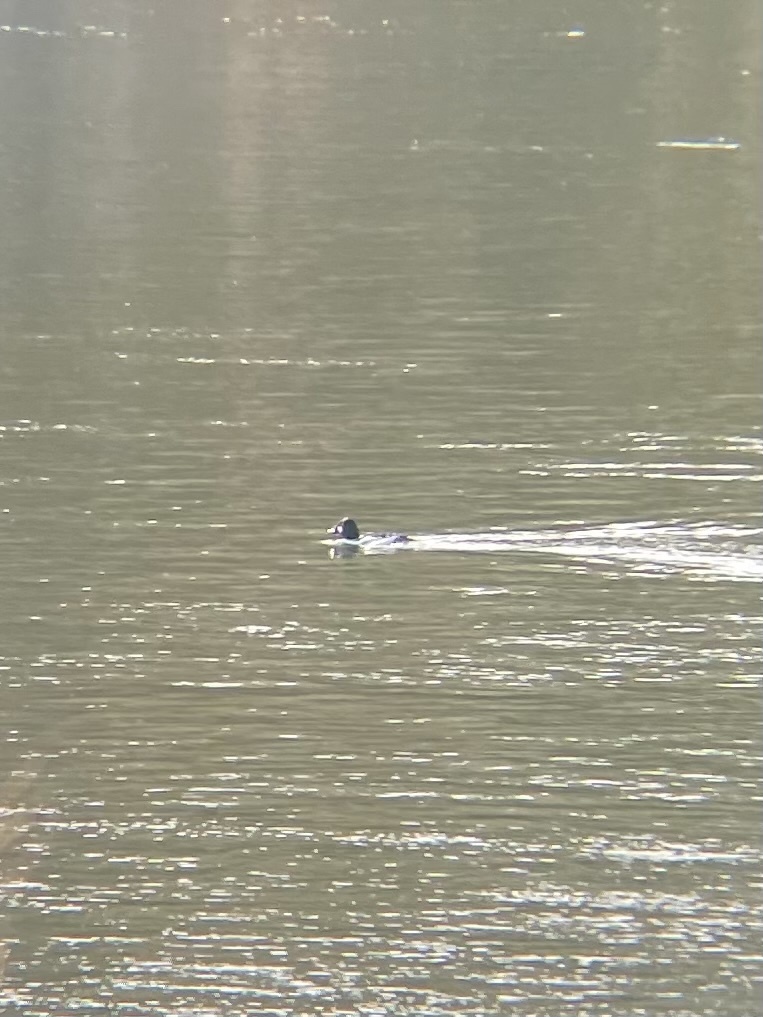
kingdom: Animalia
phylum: Chordata
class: Aves
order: Anseriformes
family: Anatidae
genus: Bucephala
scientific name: Bucephala clangula
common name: Common goldeneye
